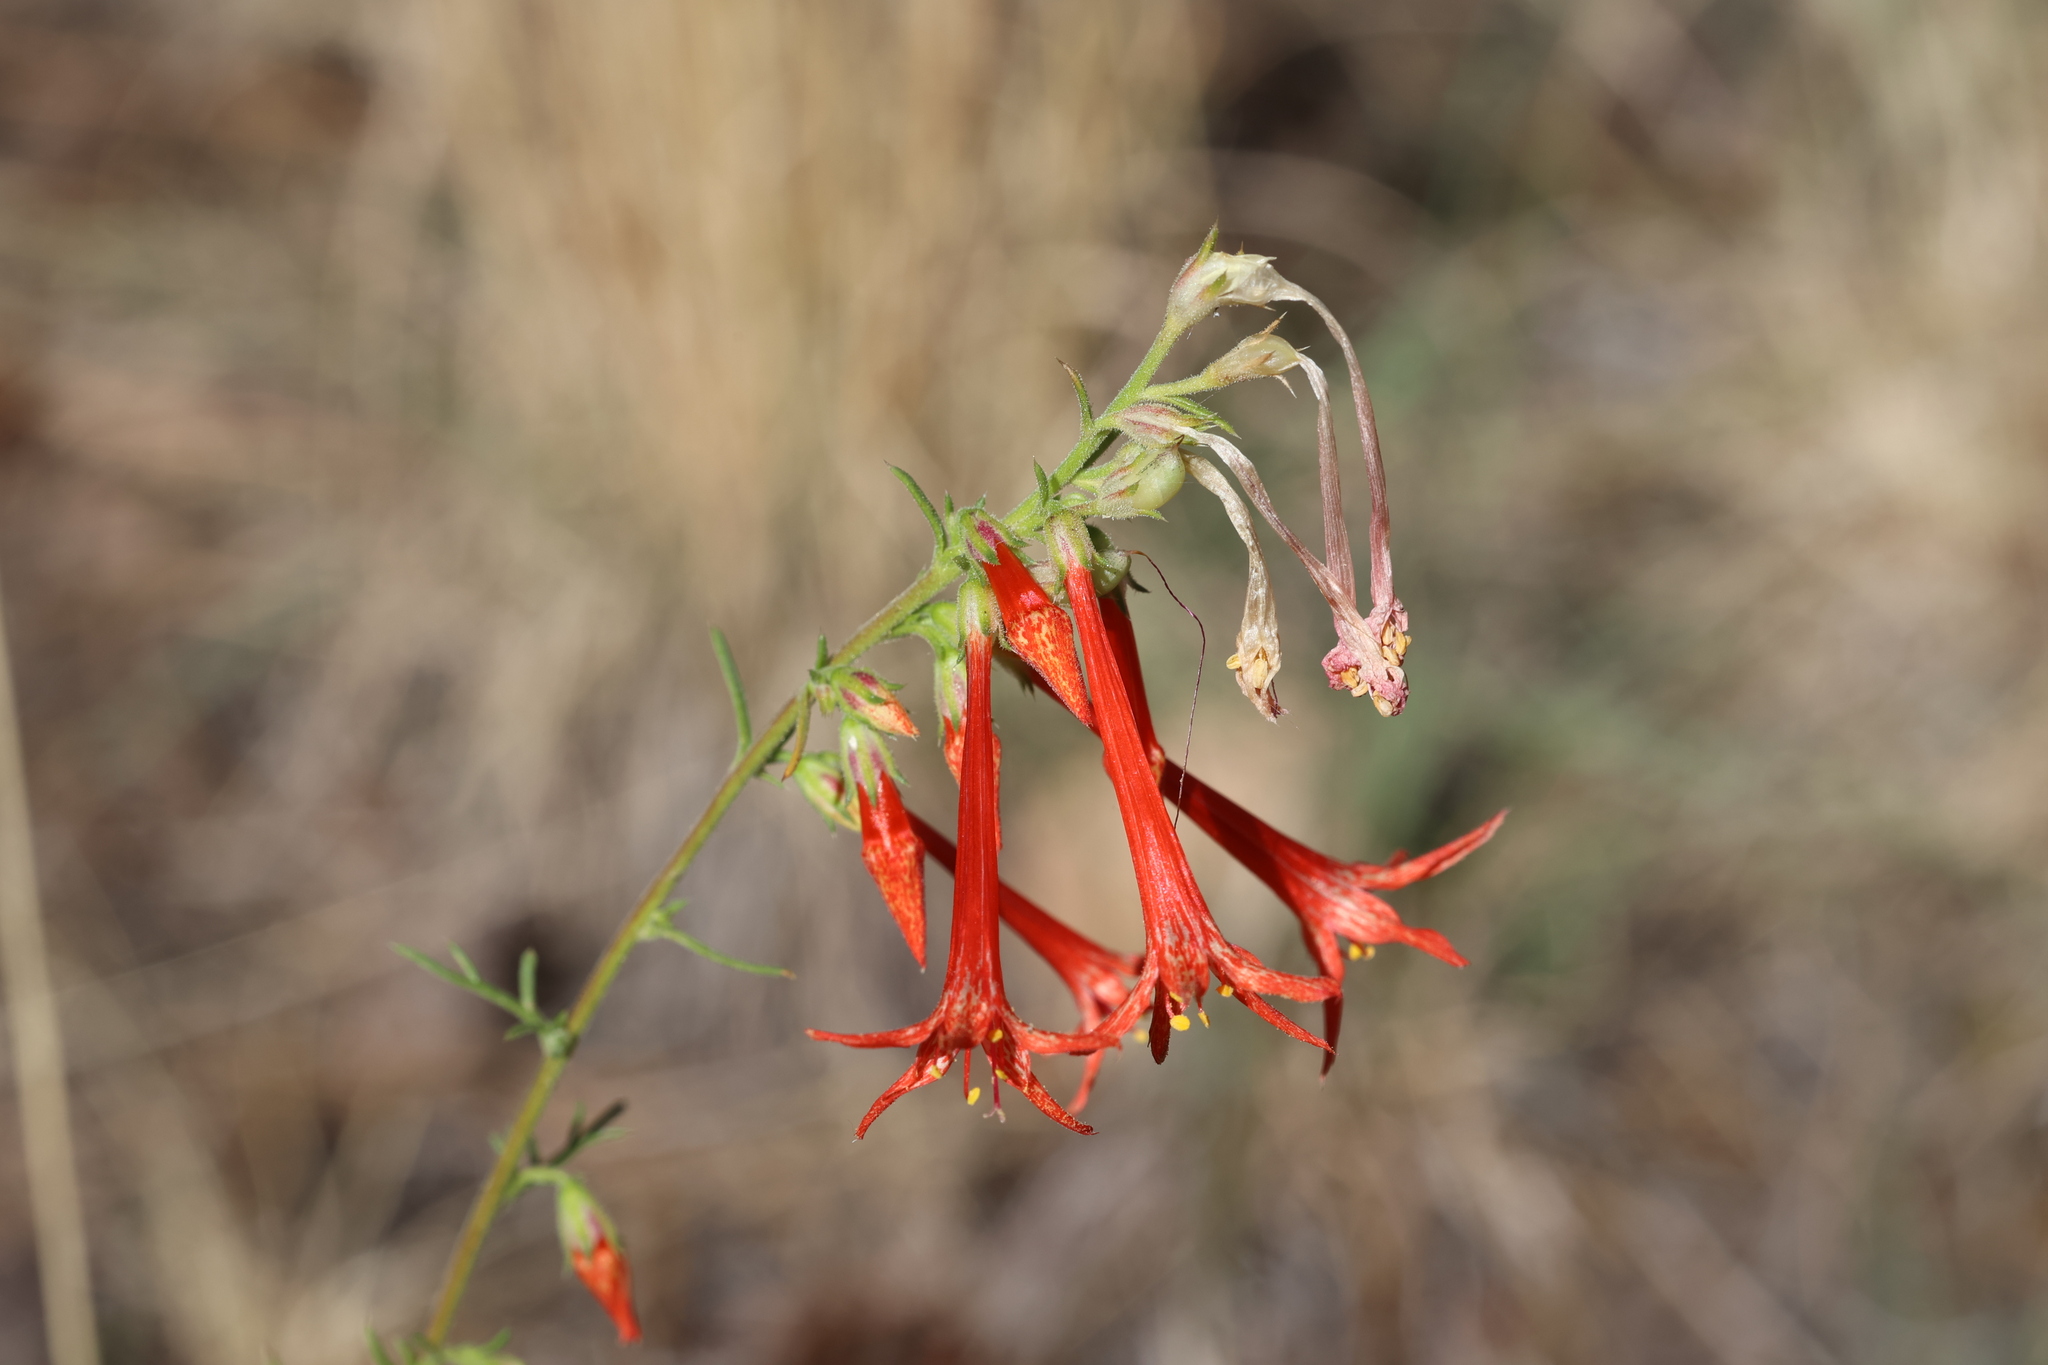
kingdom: Plantae
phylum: Tracheophyta
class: Magnoliopsida
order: Ericales
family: Polemoniaceae
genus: Ipomopsis
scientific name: Ipomopsis aggregata
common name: Scarlet gilia
